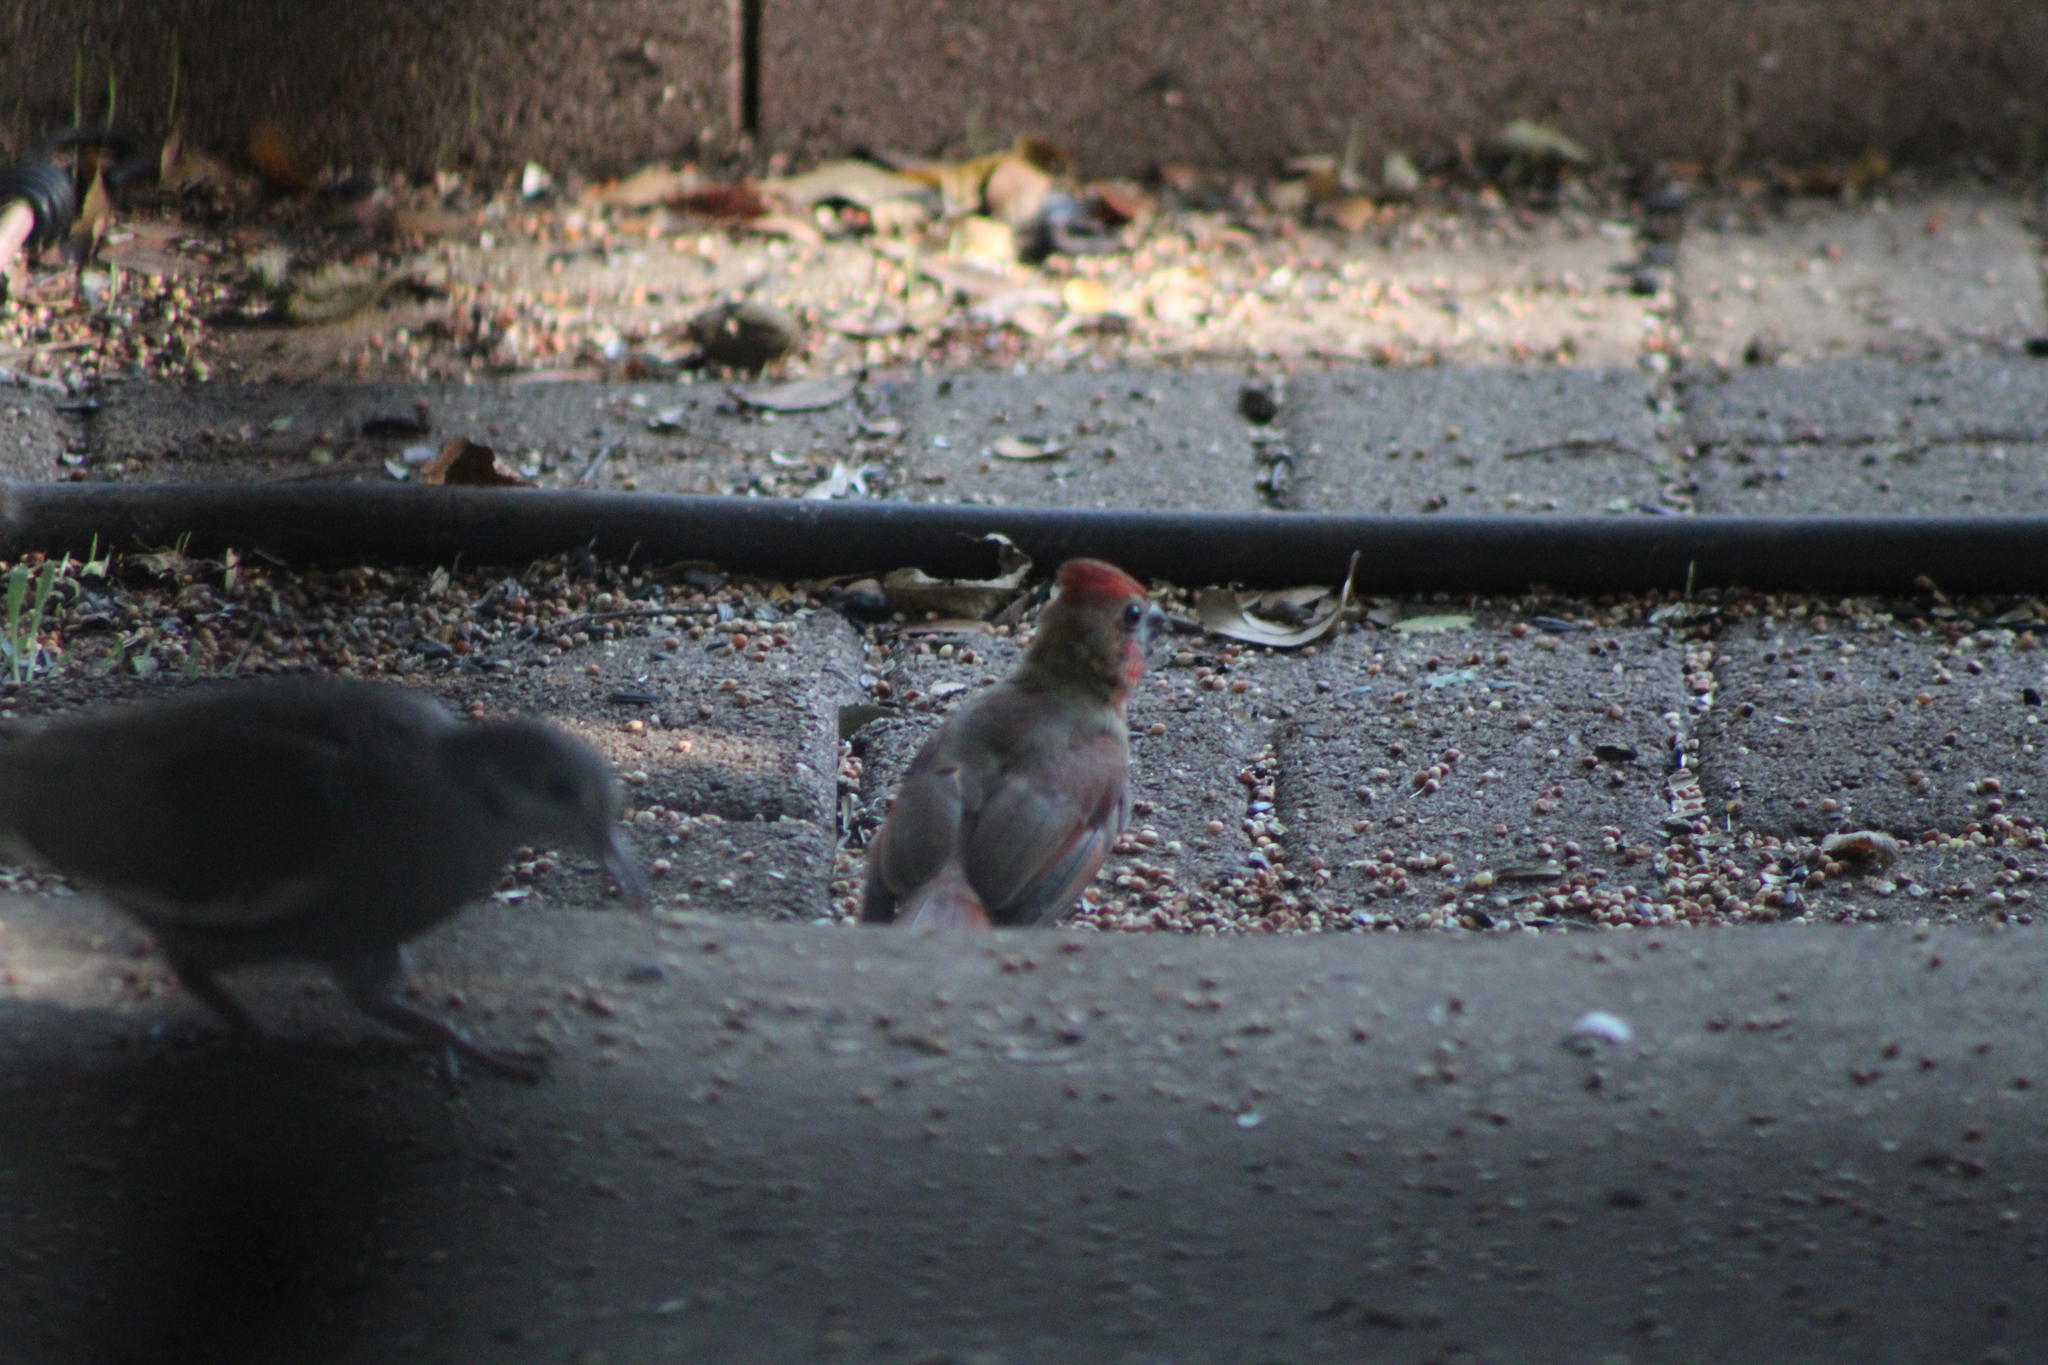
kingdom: Animalia
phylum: Chordata
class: Aves
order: Passeriformes
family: Cardinalidae
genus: Cardinalis
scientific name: Cardinalis cardinalis
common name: Northern cardinal
